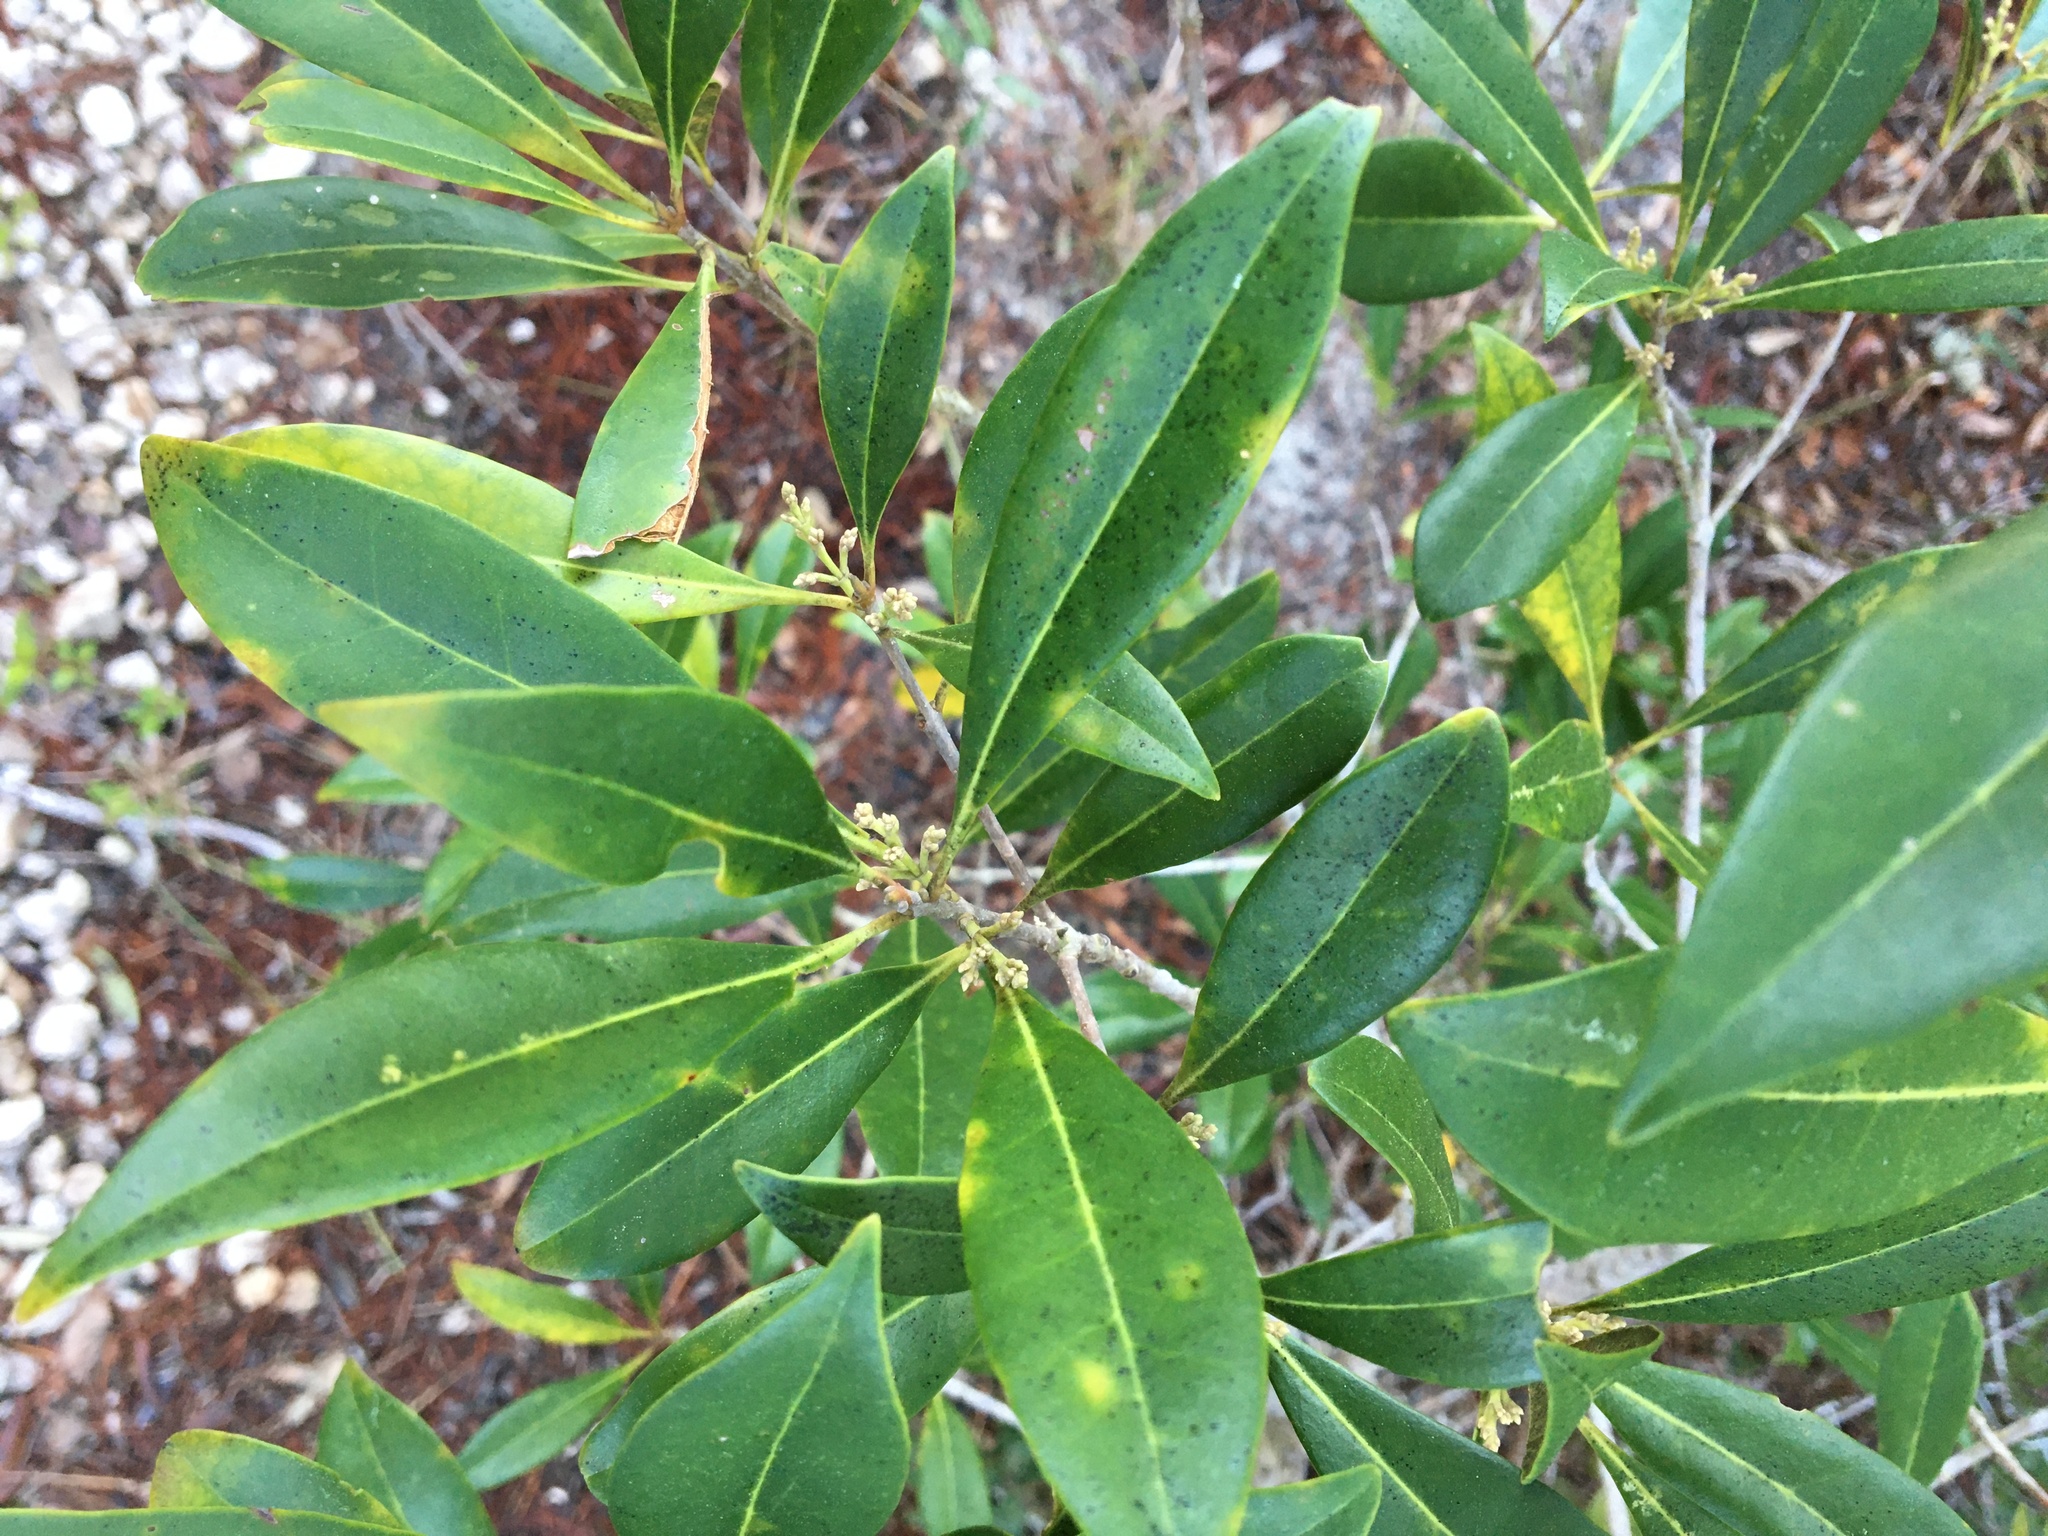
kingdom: Plantae
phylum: Tracheophyta
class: Magnoliopsida
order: Lamiales
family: Oleaceae
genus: Cartrema
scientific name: Cartrema americana
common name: Devilwood
